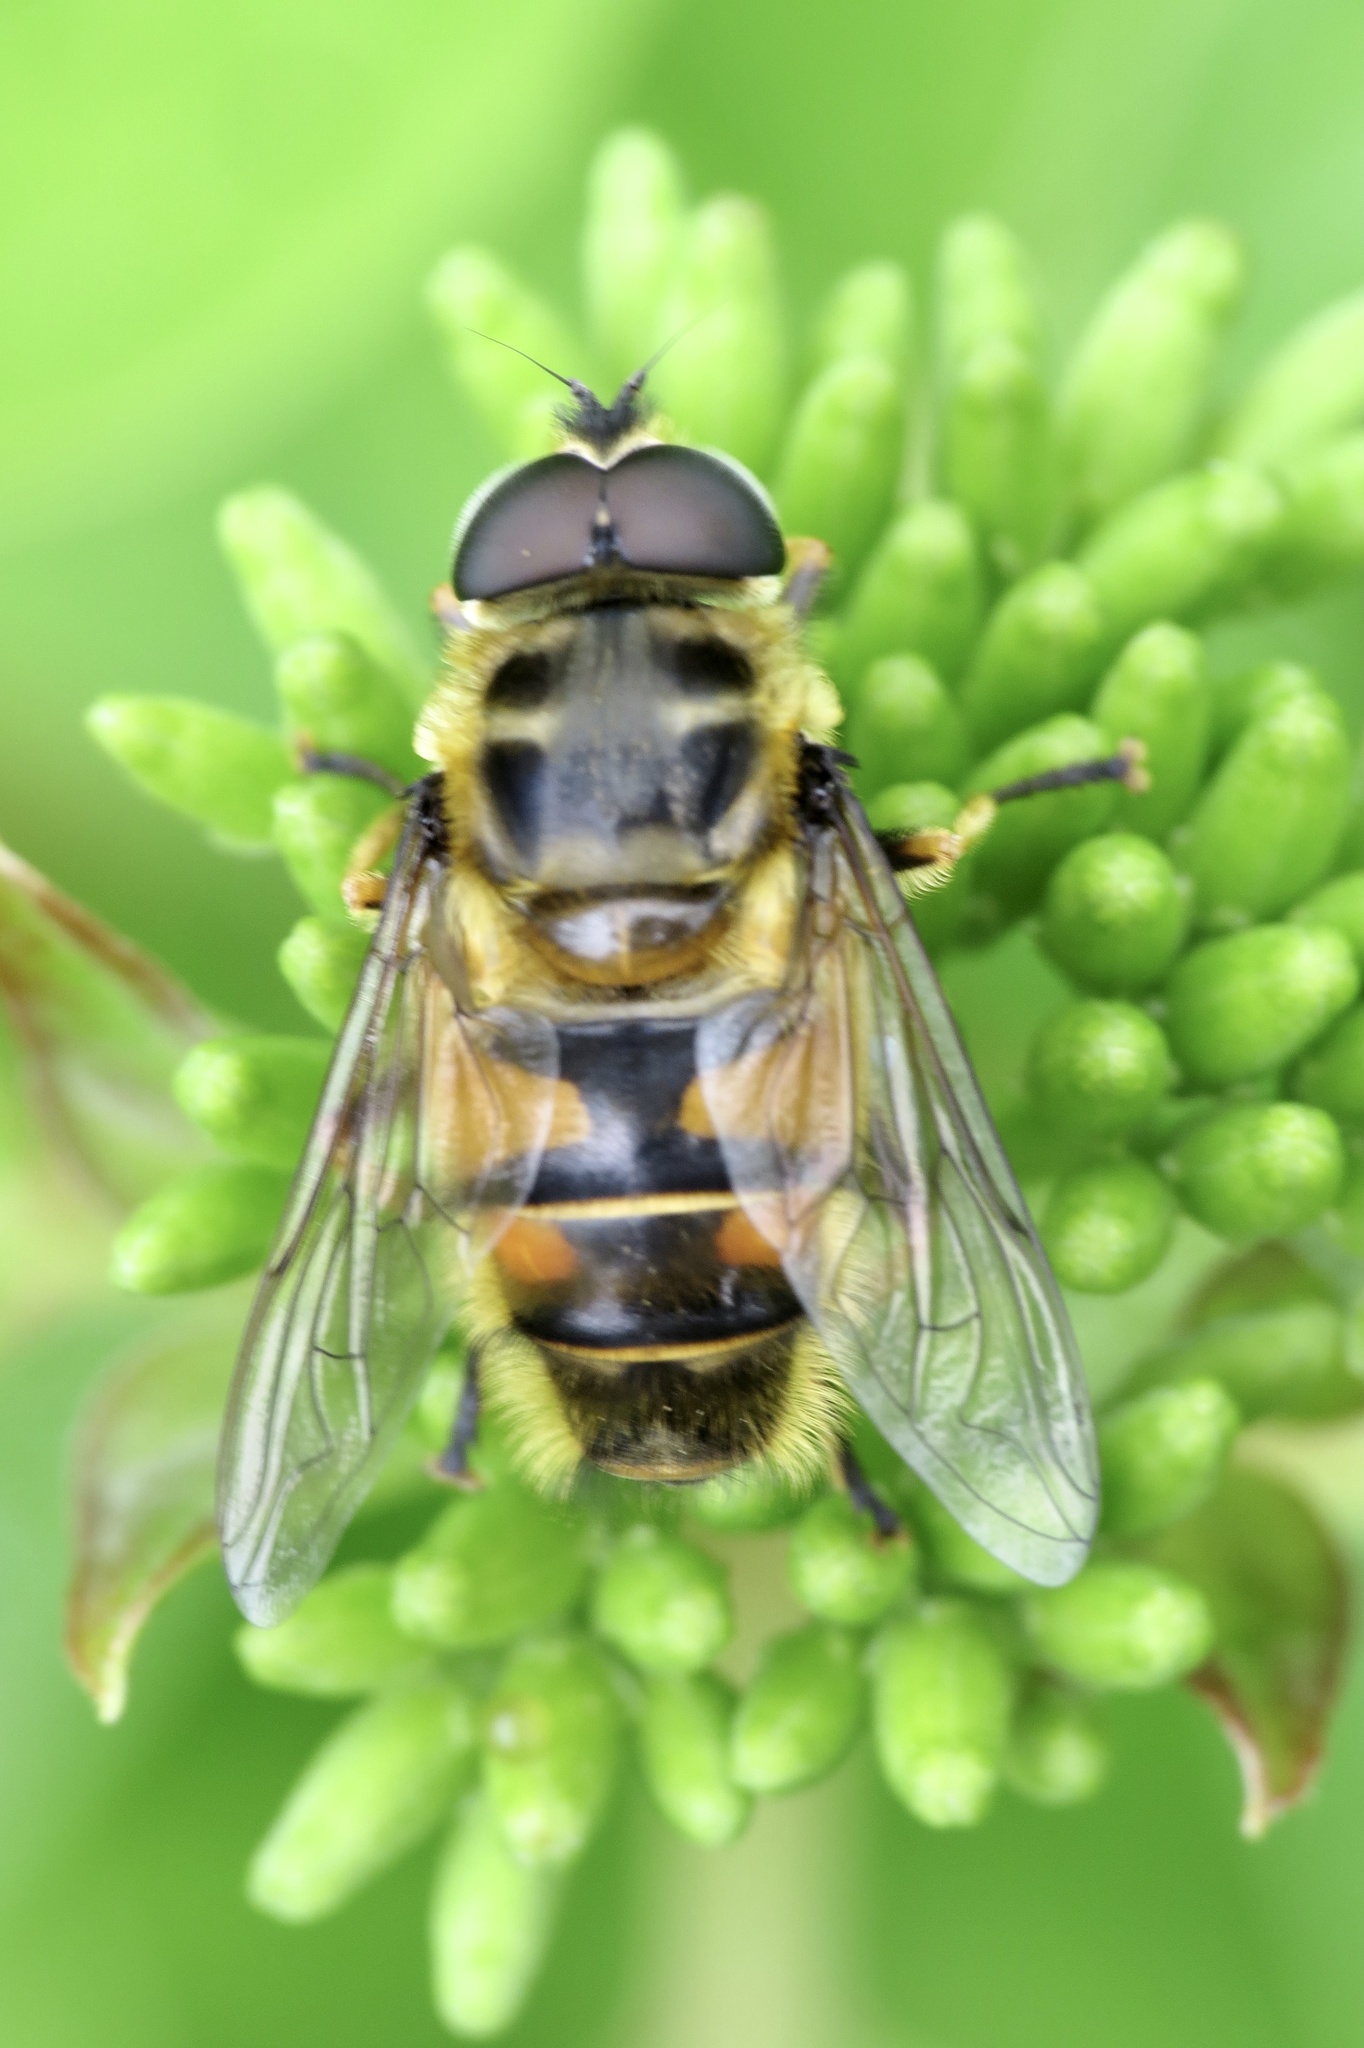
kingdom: Animalia
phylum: Arthropoda
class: Insecta
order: Diptera
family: Syrphidae
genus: Myathropa
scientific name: Myathropa florea
